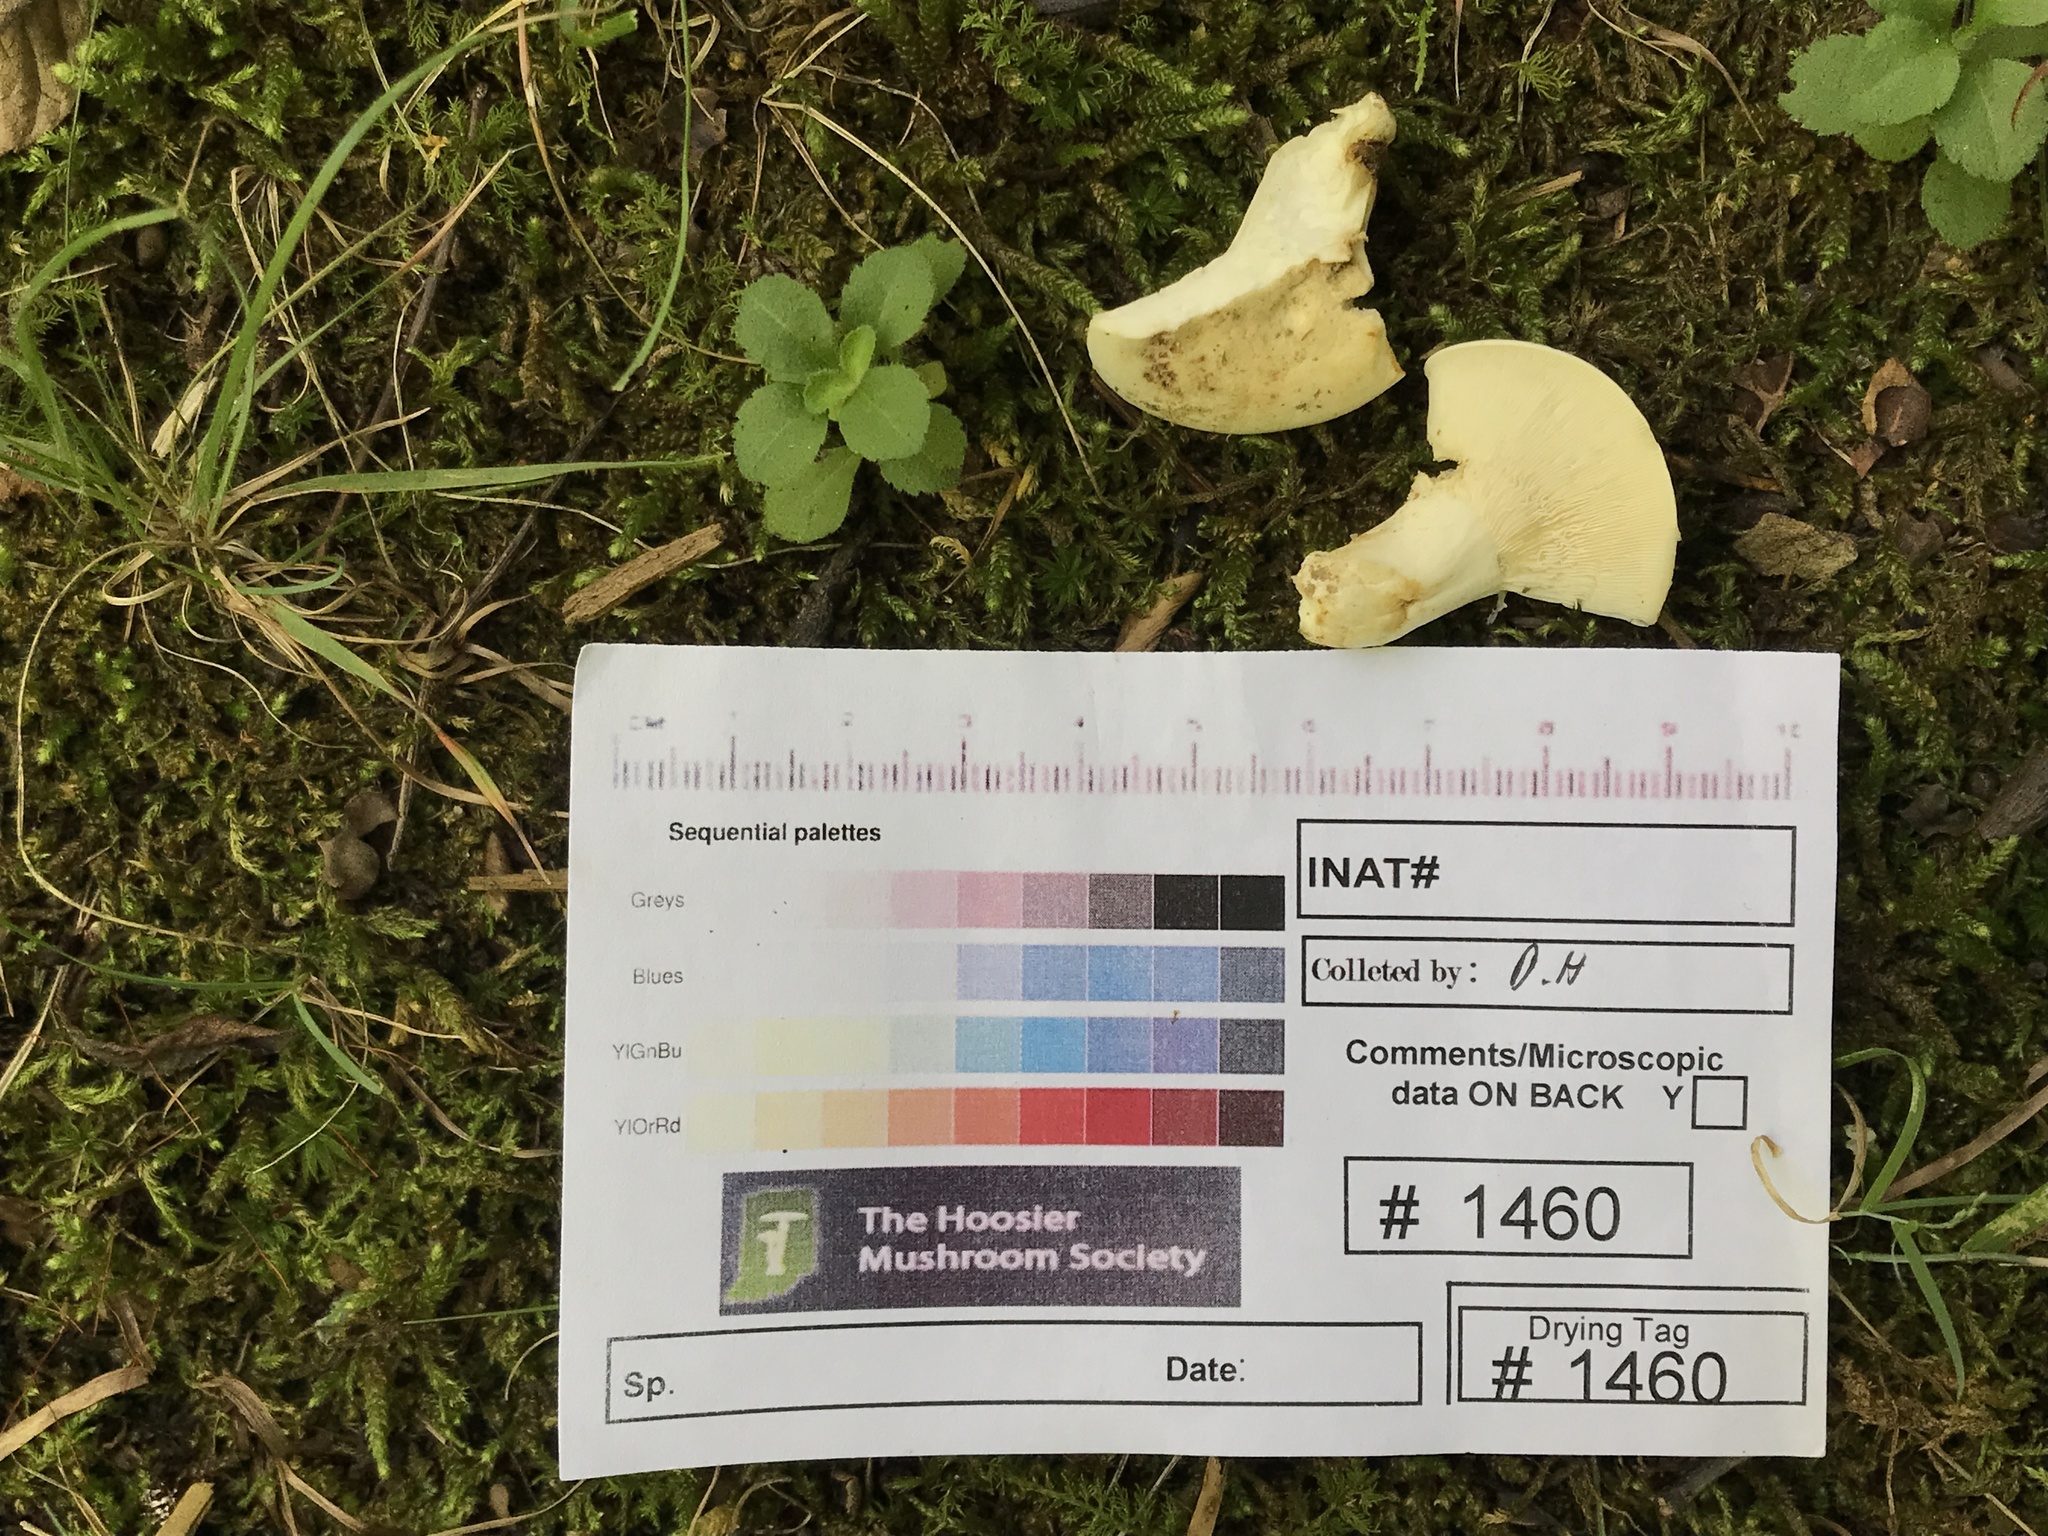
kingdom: Fungi
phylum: Basidiomycota
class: Agaricomycetes
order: Russulales
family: Russulaceae
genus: Lactifluus
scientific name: Lactifluus glaucescens
